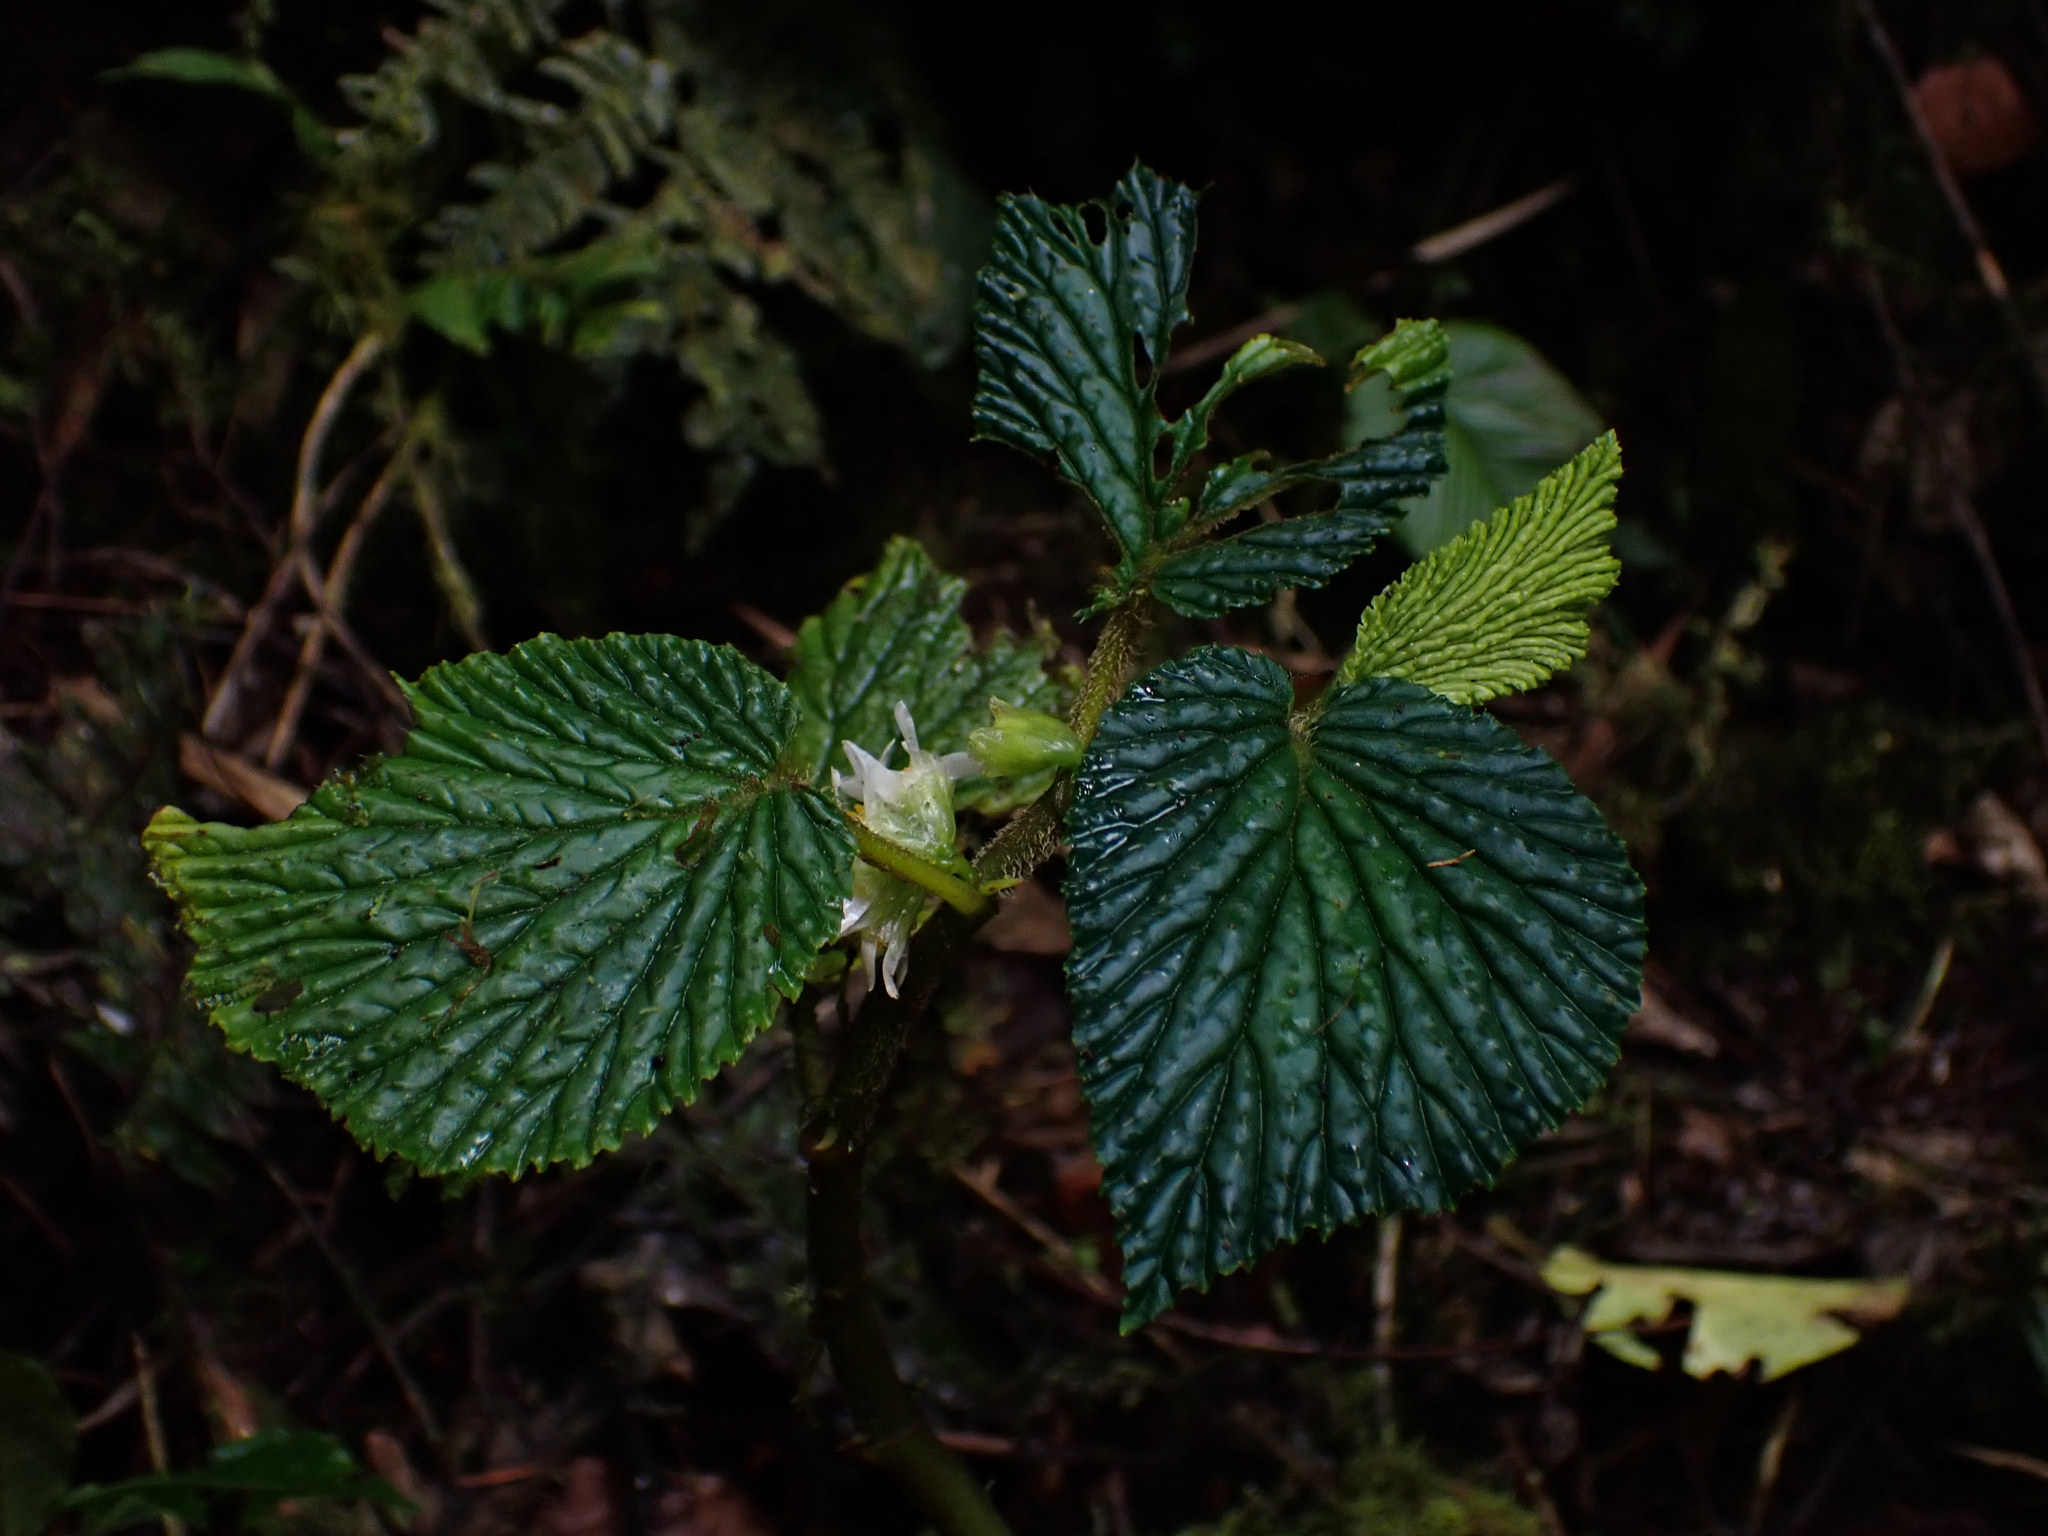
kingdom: Plantae
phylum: Tracheophyta
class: Magnoliopsida
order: Cucurbitales
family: Begoniaceae
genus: Begonia
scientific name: Begonia tiliifolia
